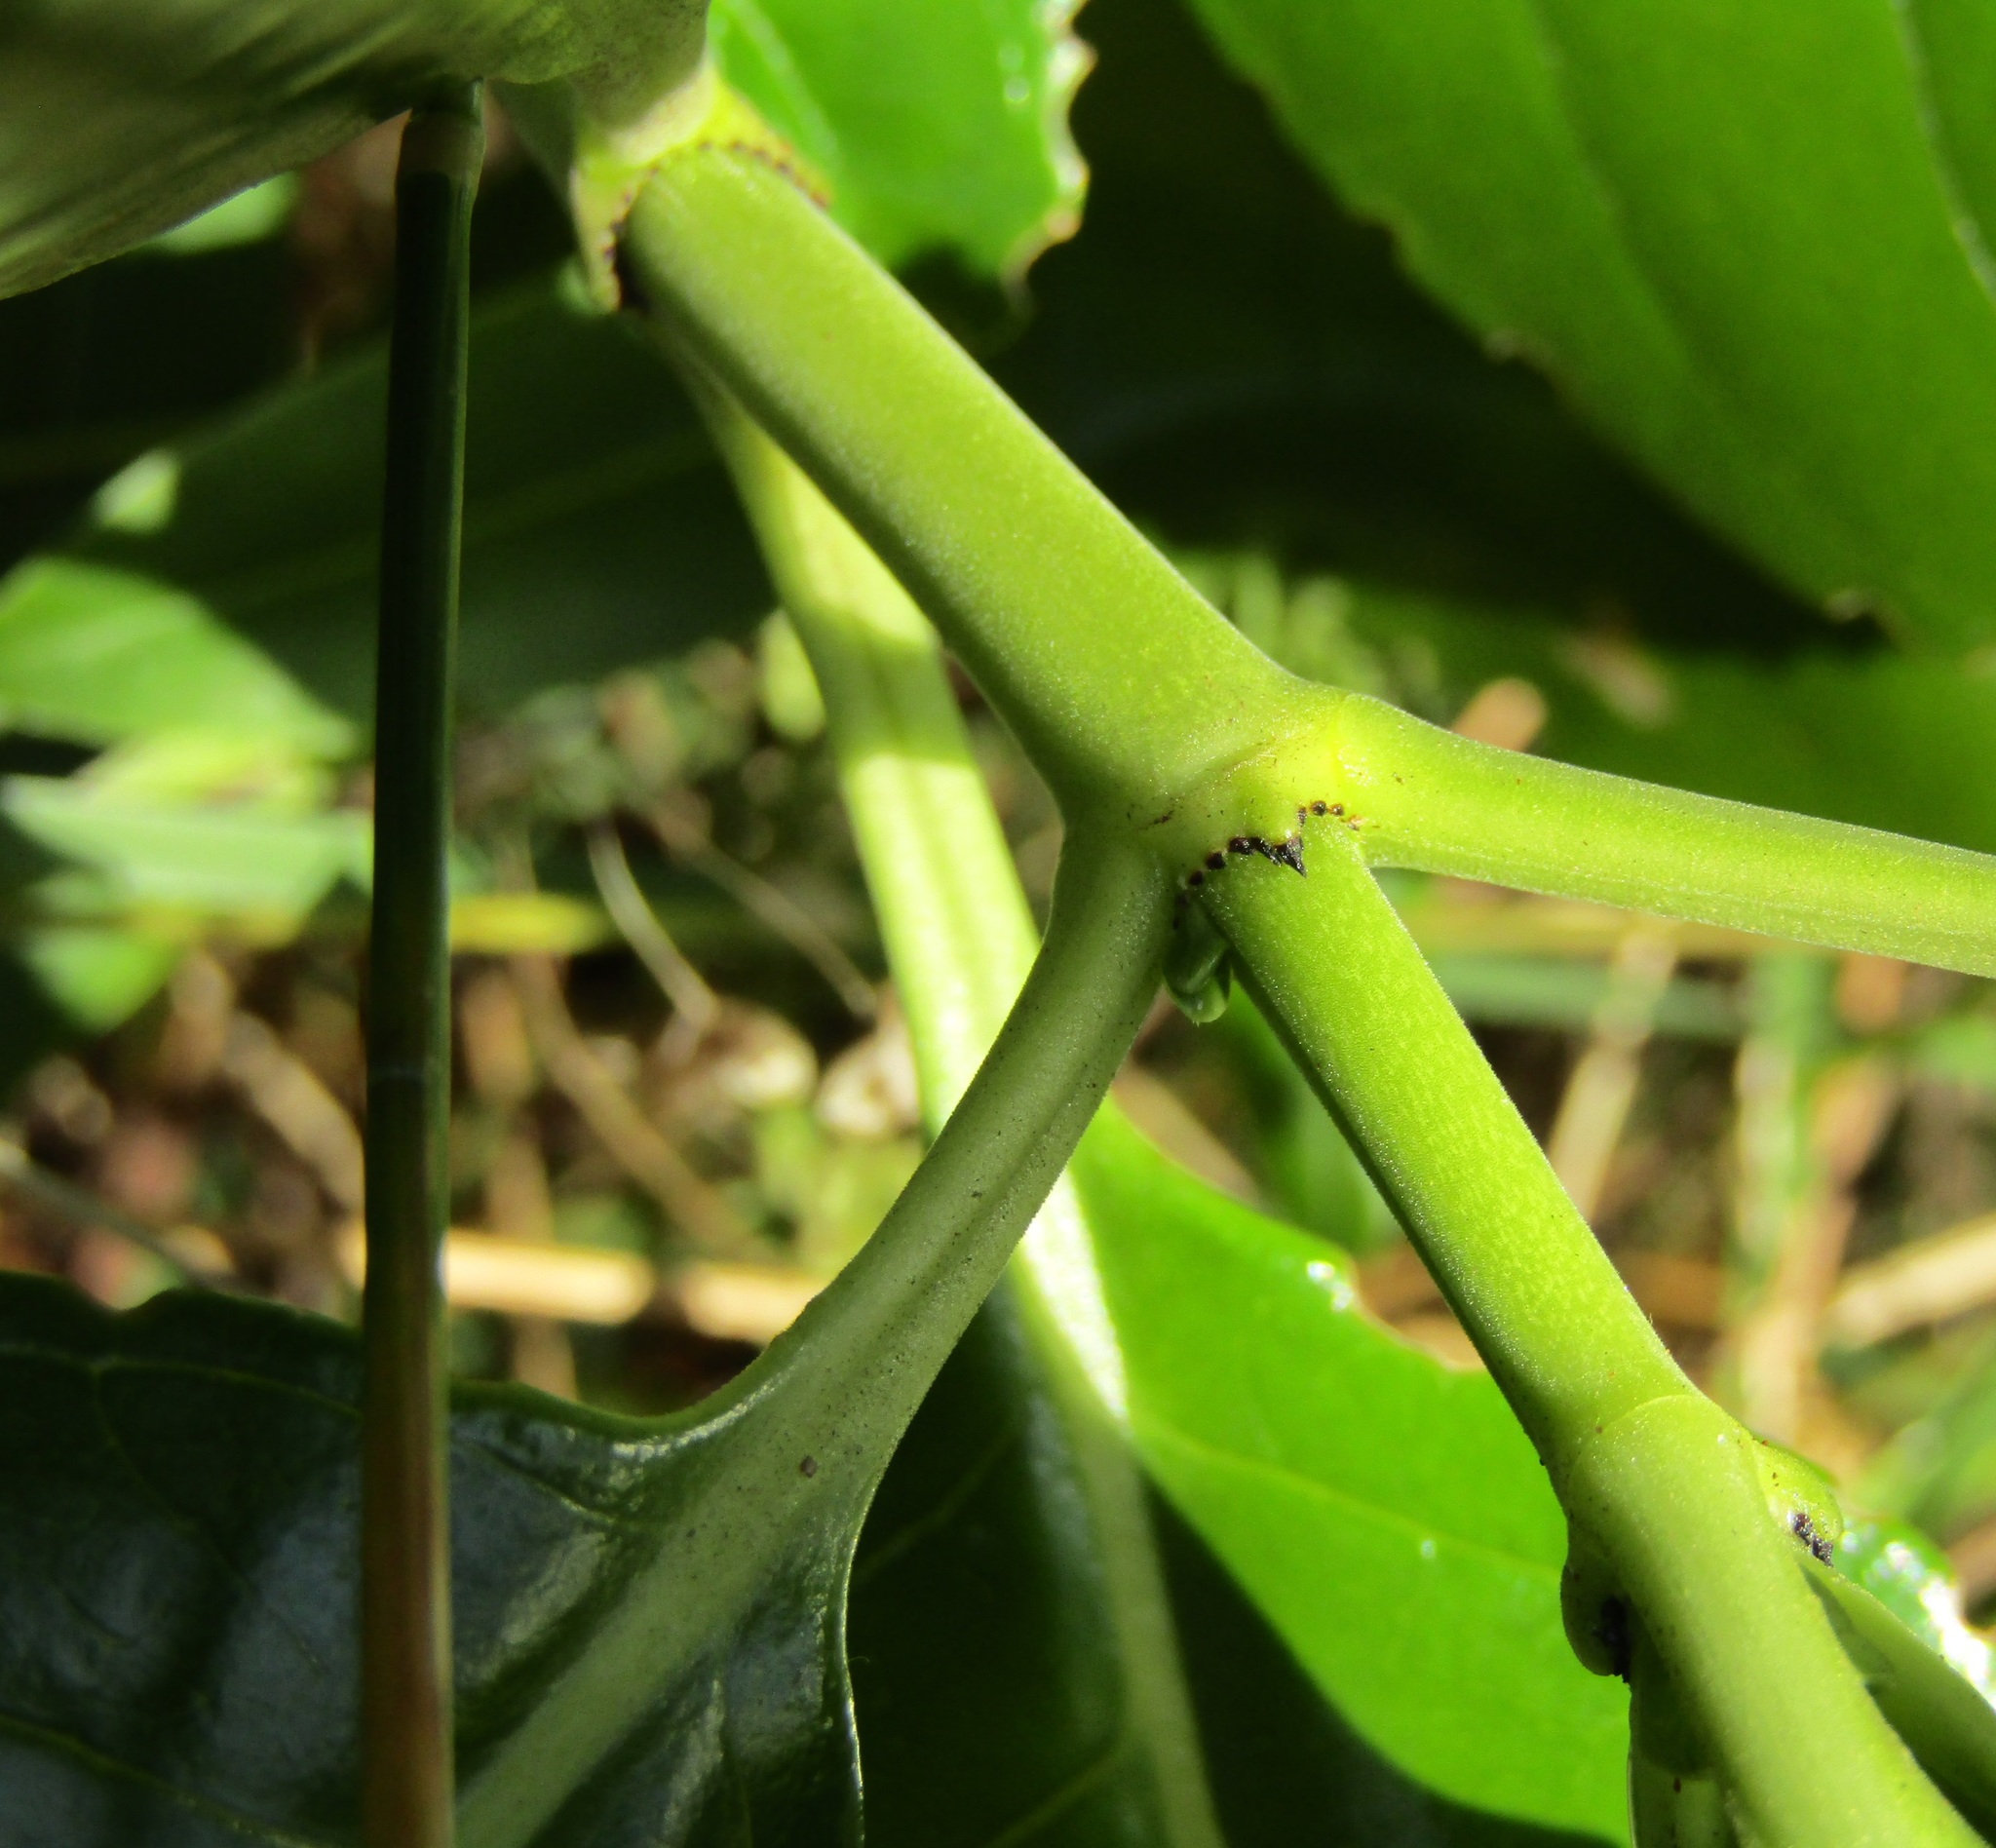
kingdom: Plantae
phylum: Tracheophyta
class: Magnoliopsida
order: Gentianales
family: Rubiaceae
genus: Coprosma
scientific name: Coprosma repens
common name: Tree bedstraw
